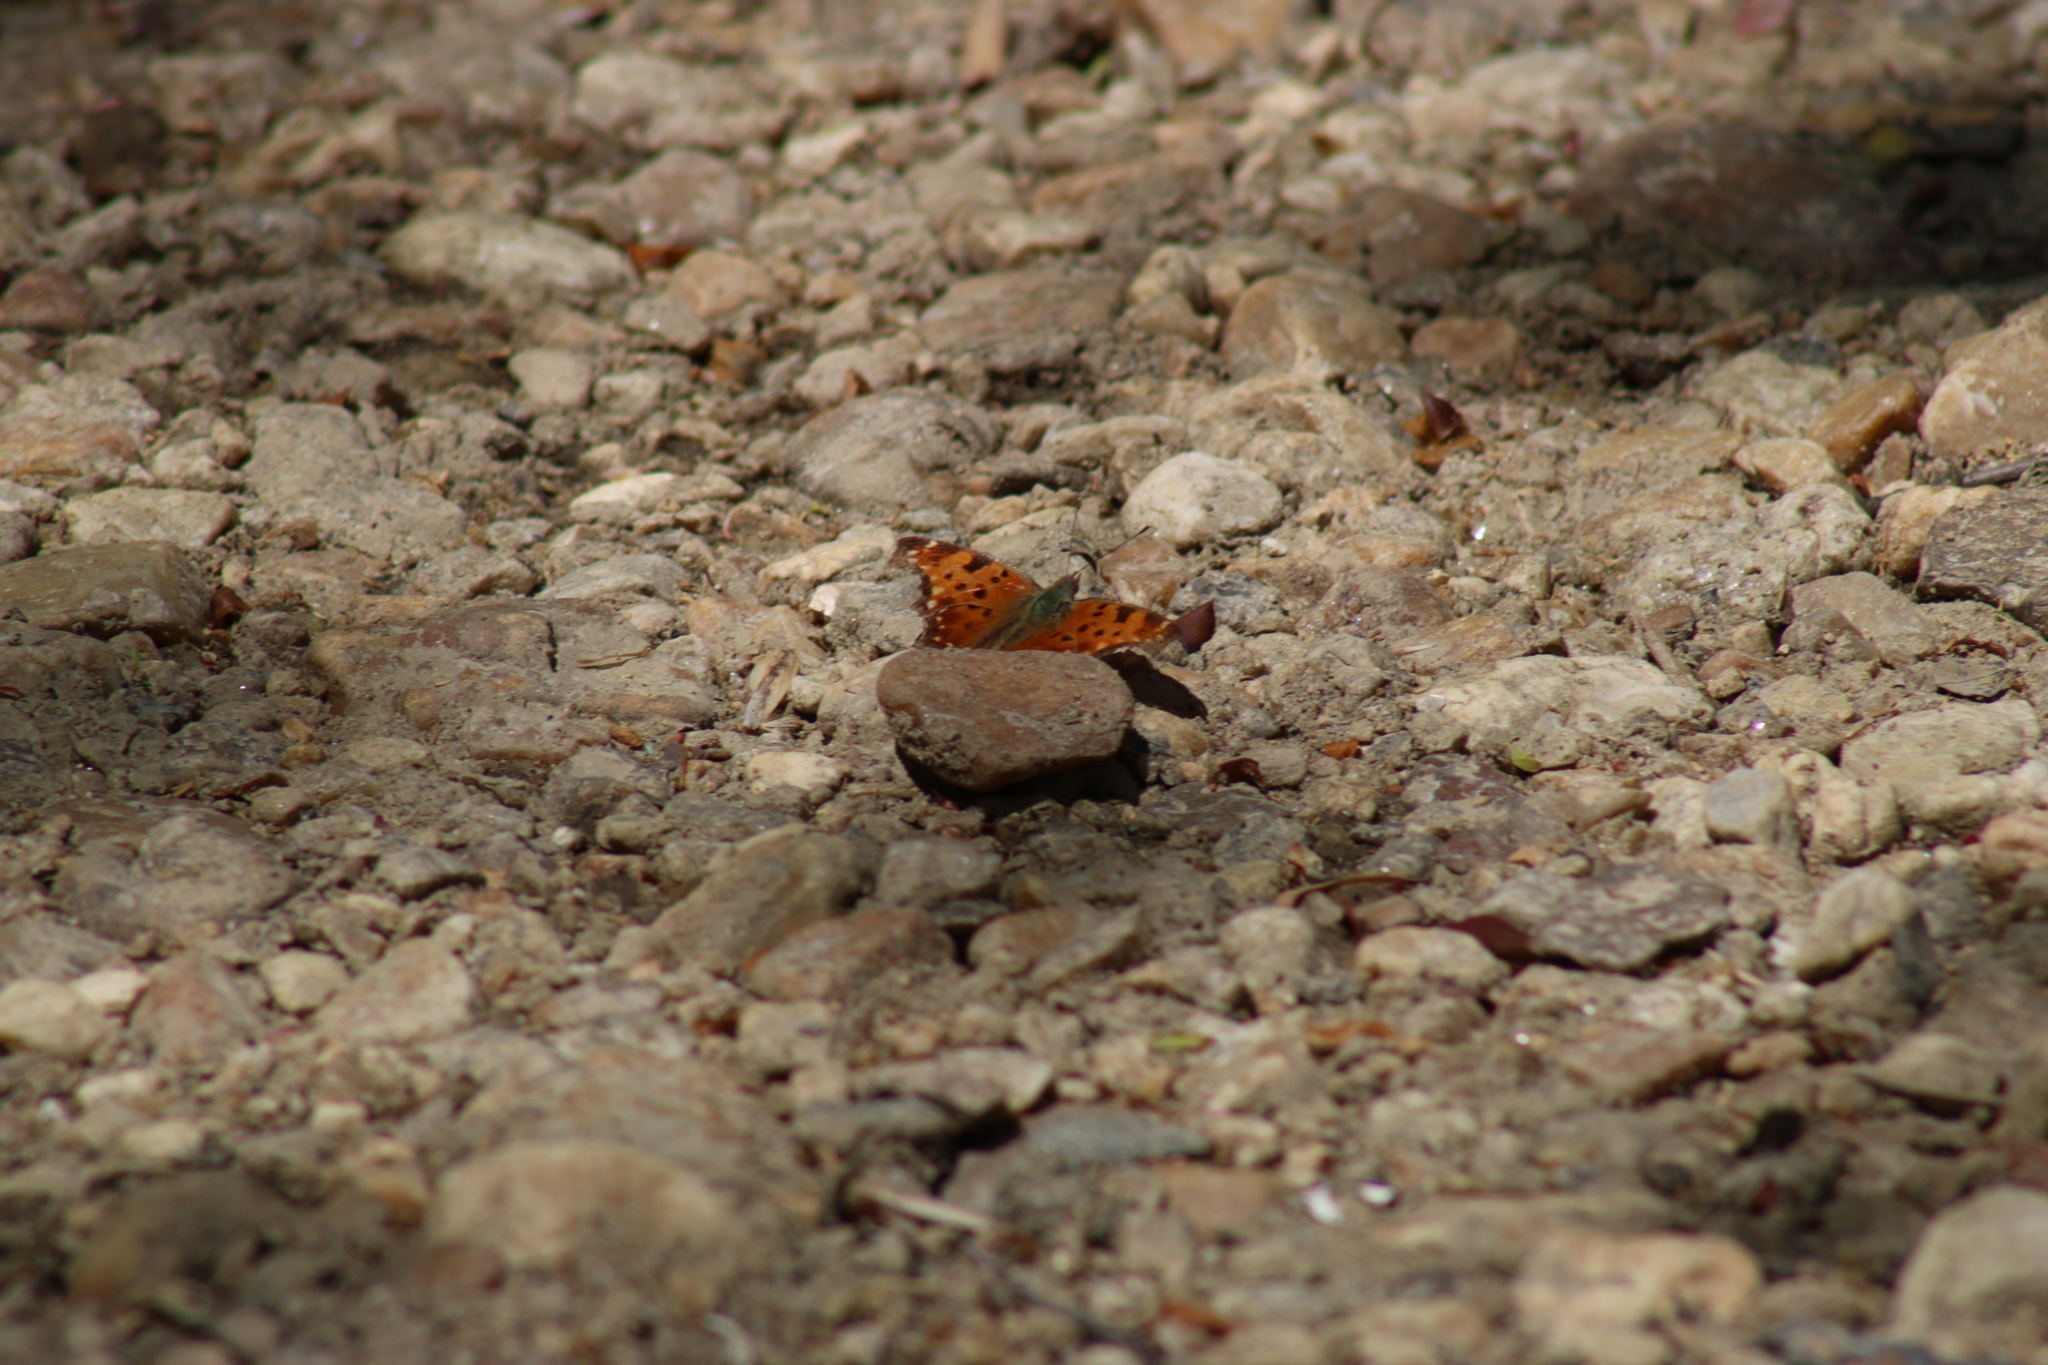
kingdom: Animalia
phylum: Arthropoda
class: Insecta
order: Lepidoptera
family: Nymphalidae
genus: Polygonia
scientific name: Polygonia comma
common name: Eastern comma
